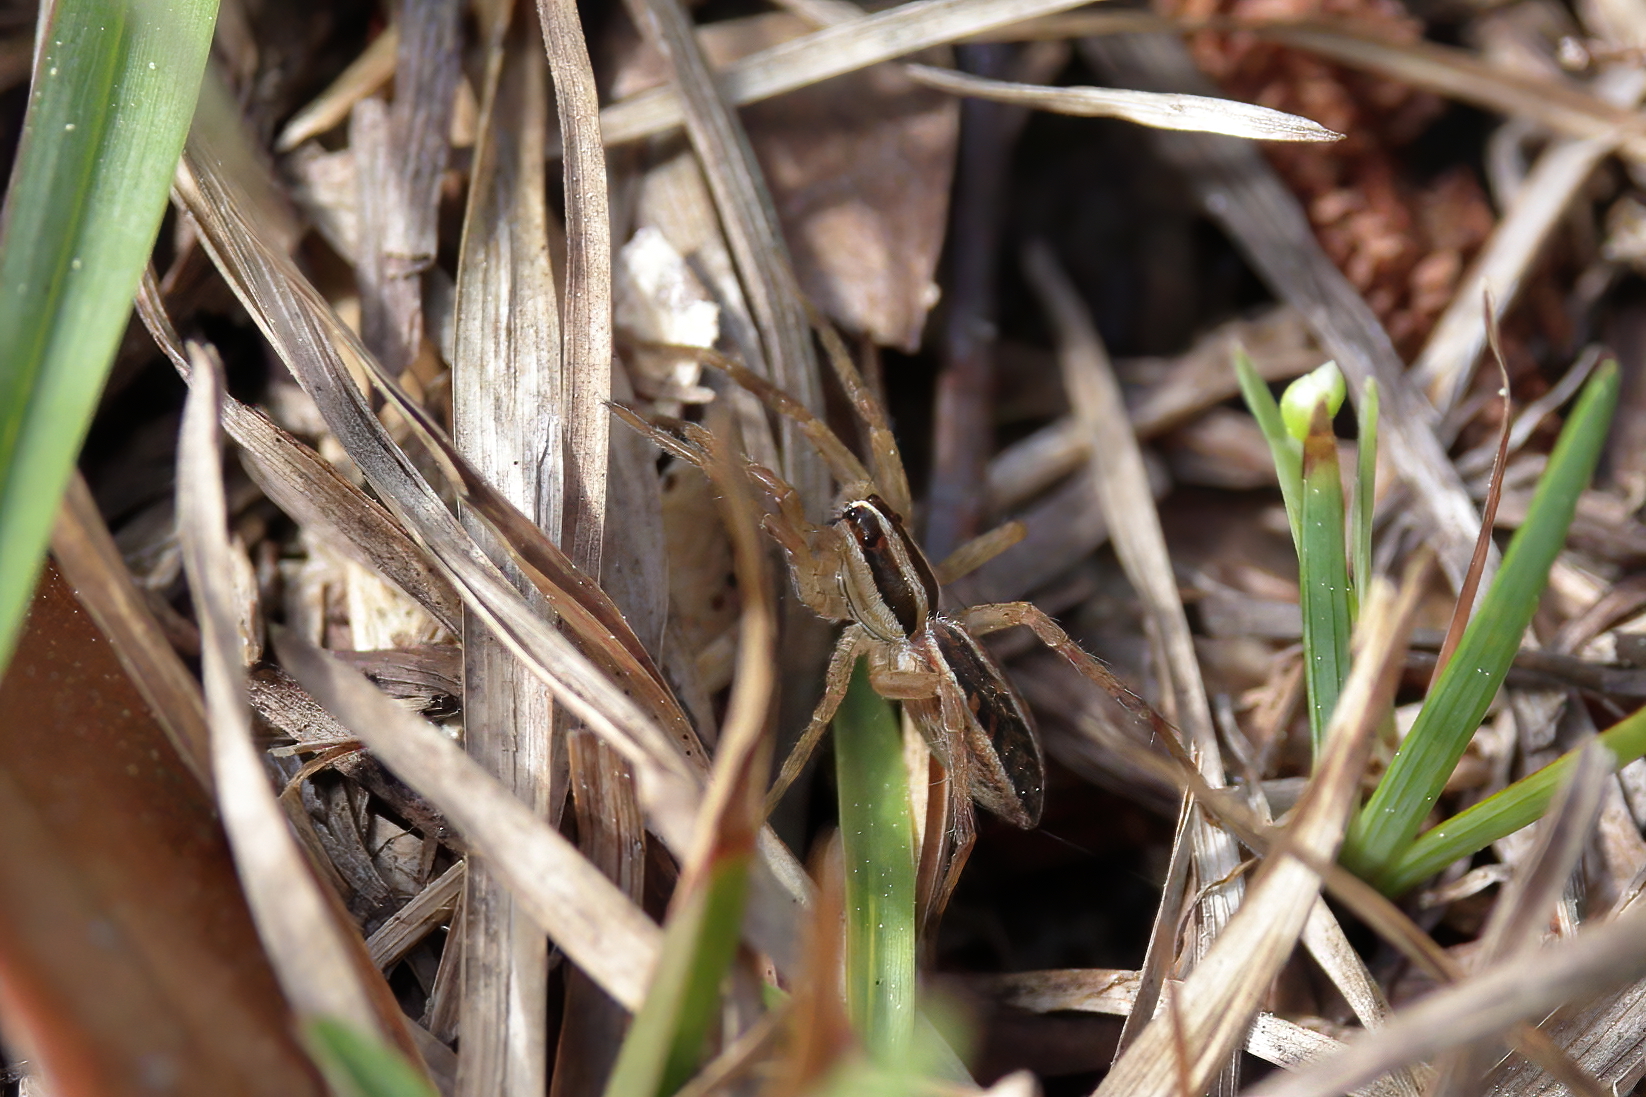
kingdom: Animalia
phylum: Arthropoda
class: Arachnida
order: Araneae
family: Lycosidae
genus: Rabidosa
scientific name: Rabidosa rabida
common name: Rabid wolf spider
